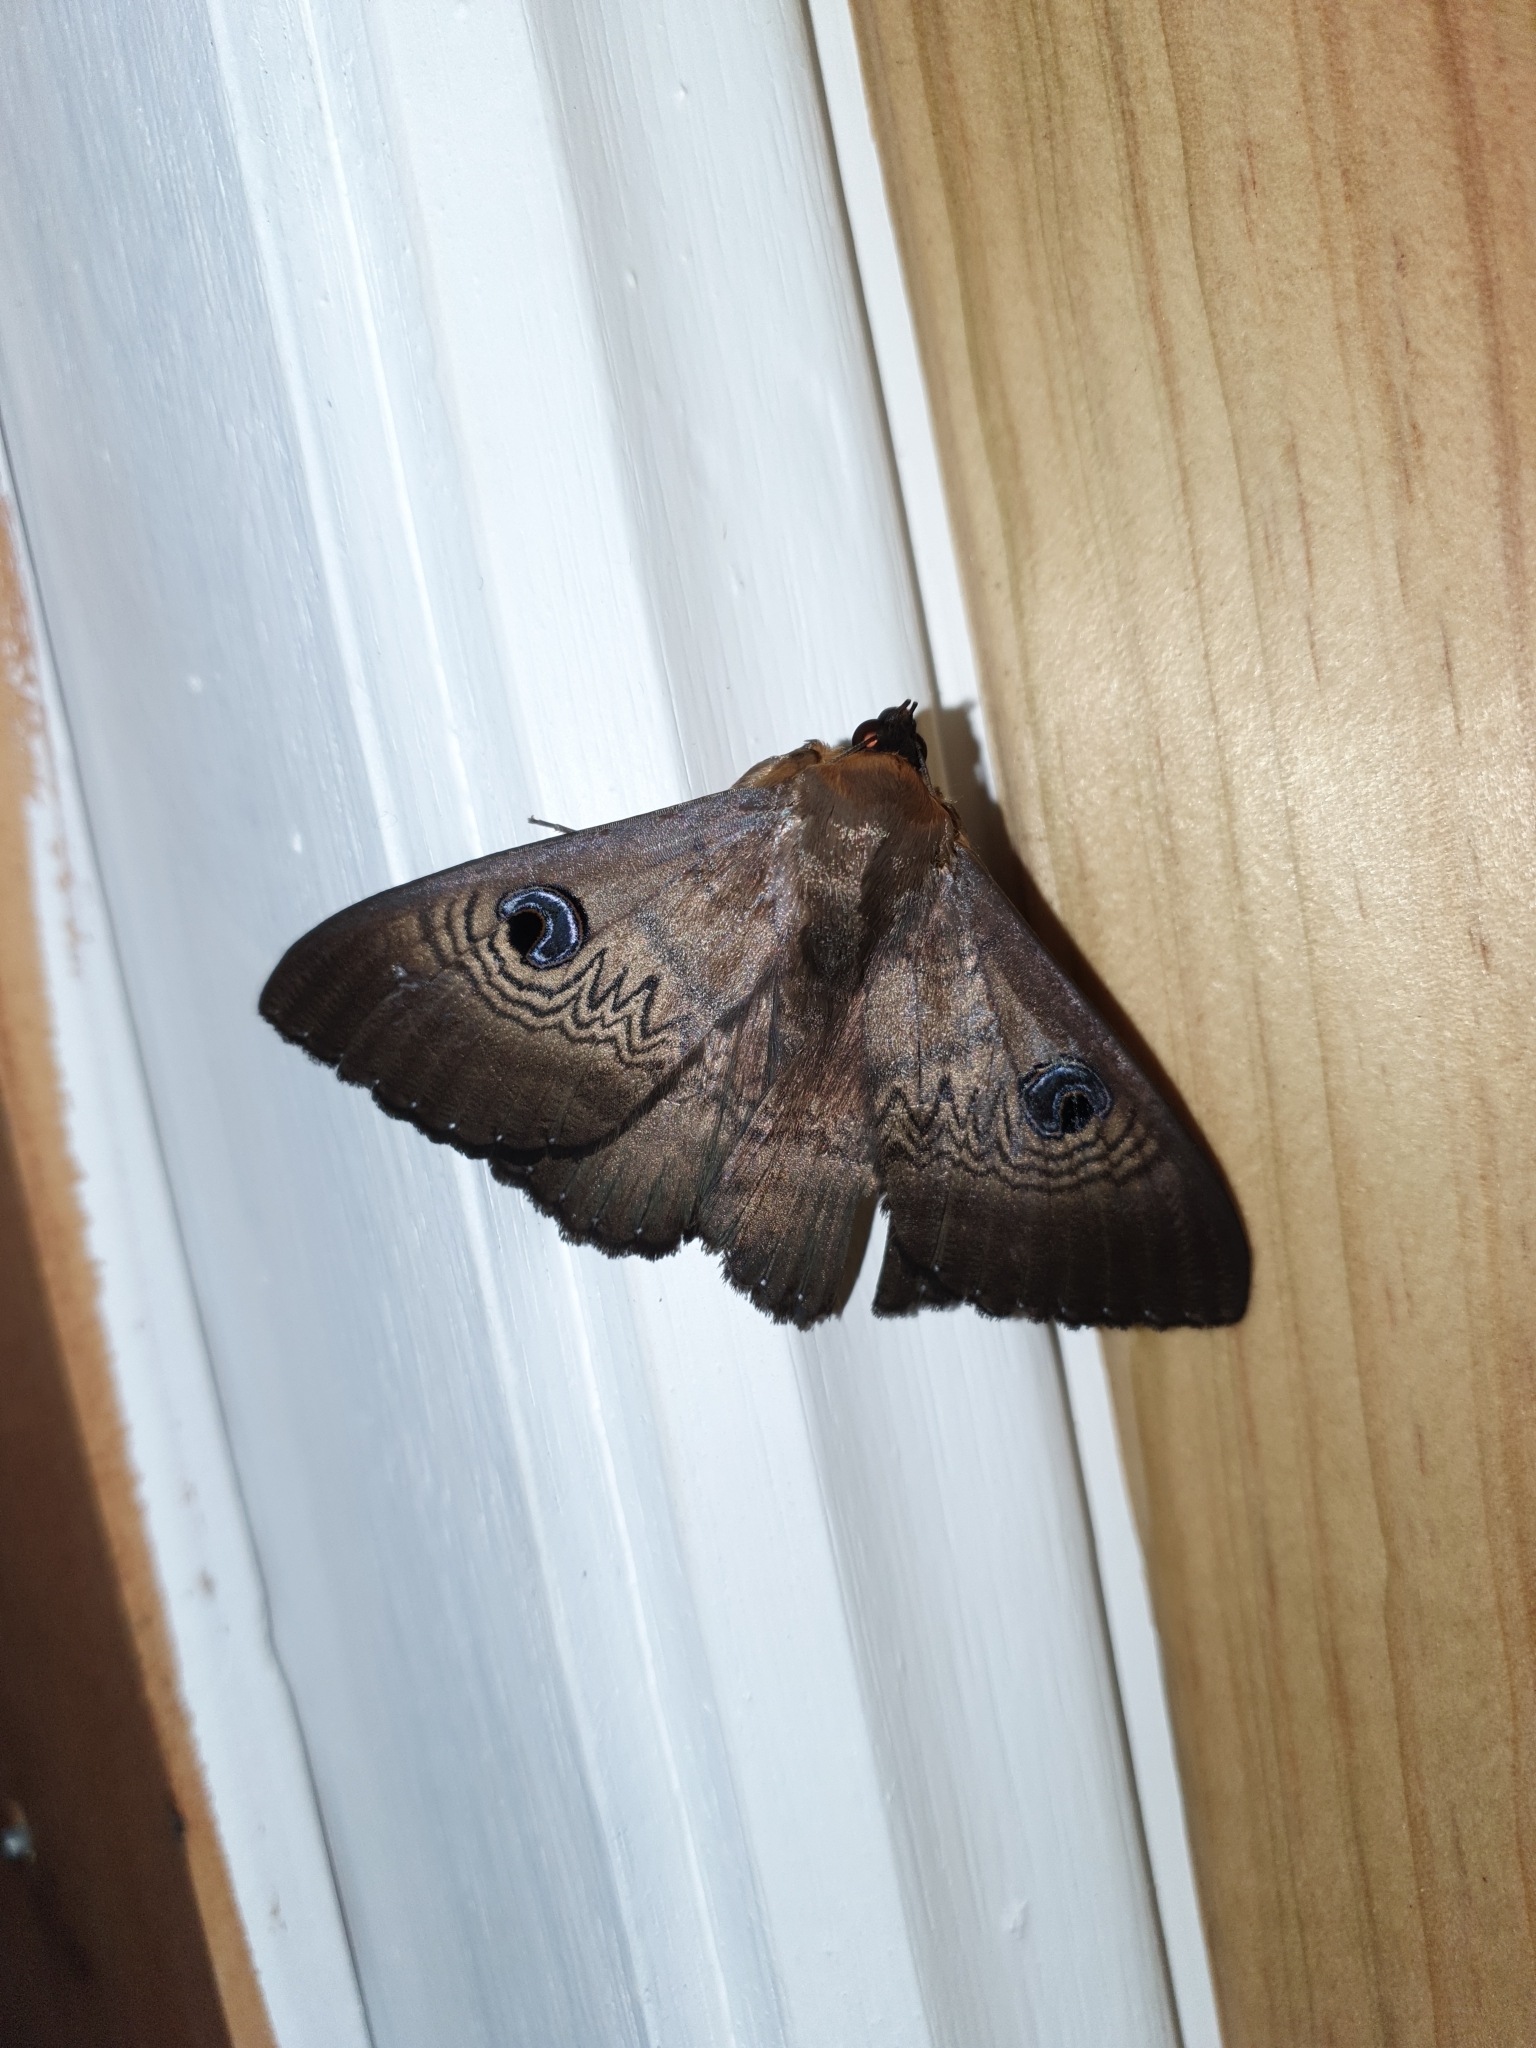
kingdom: Animalia
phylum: Arthropoda
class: Insecta
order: Lepidoptera
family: Erebidae
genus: Dasypodia
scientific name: Dasypodia selenophora
